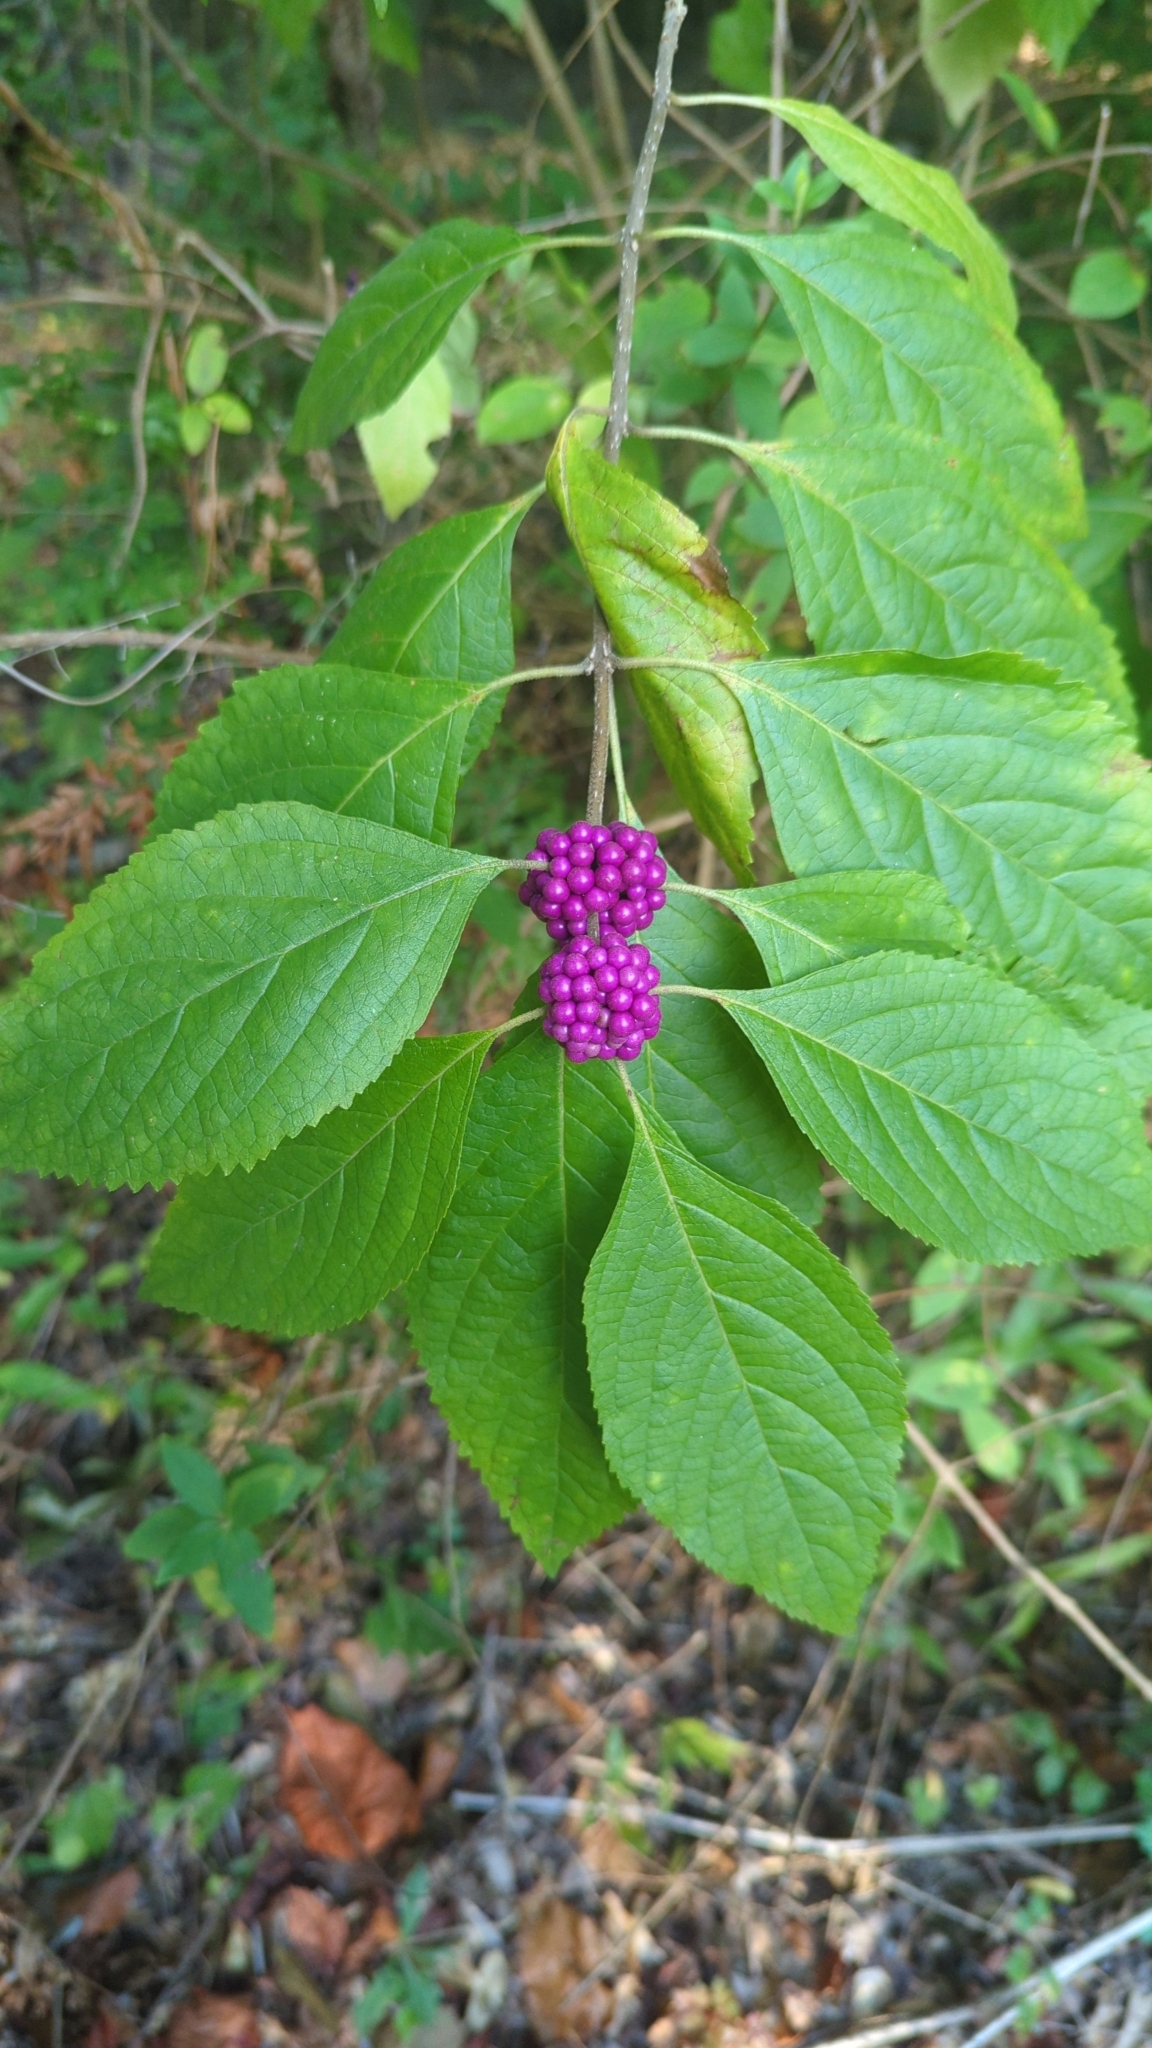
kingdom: Plantae
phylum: Tracheophyta
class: Magnoliopsida
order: Lamiales
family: Lamiaceae
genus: Callicarpa
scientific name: Callicarpa americana
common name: American beautyberry
